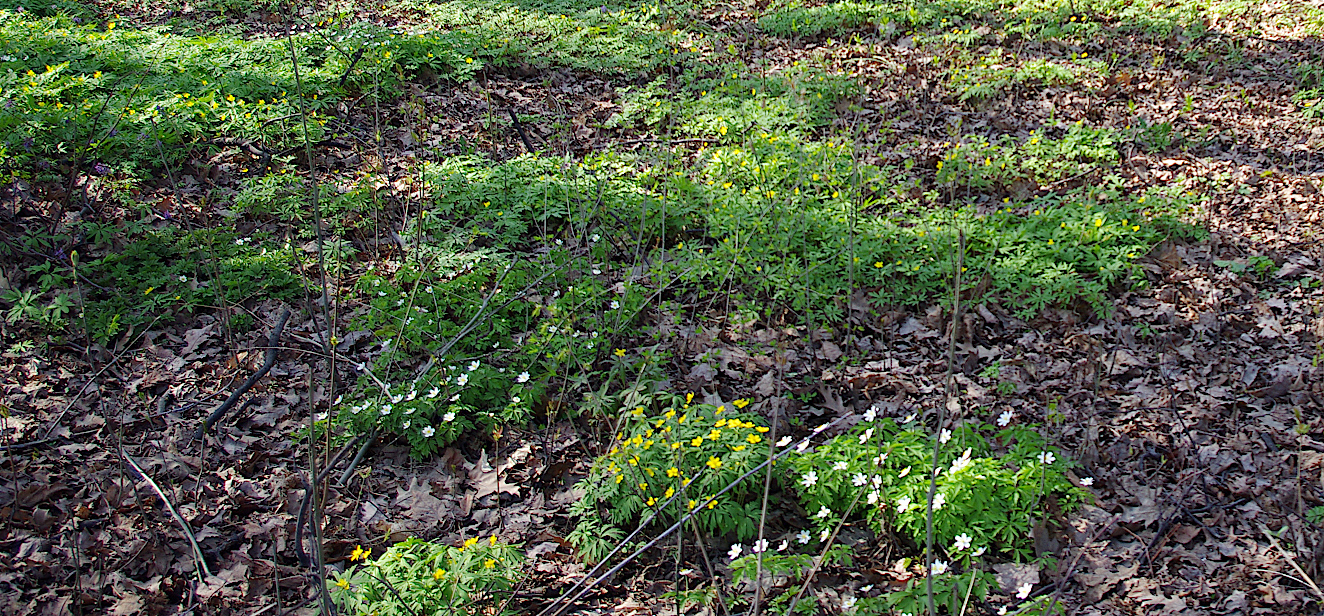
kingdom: Plantae
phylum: Tracheophyta
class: Magnoliopsida
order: Ranunculales
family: Ranunculaceae
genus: Anemone
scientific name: Anemone ranunculoides
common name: Yellow anemone
